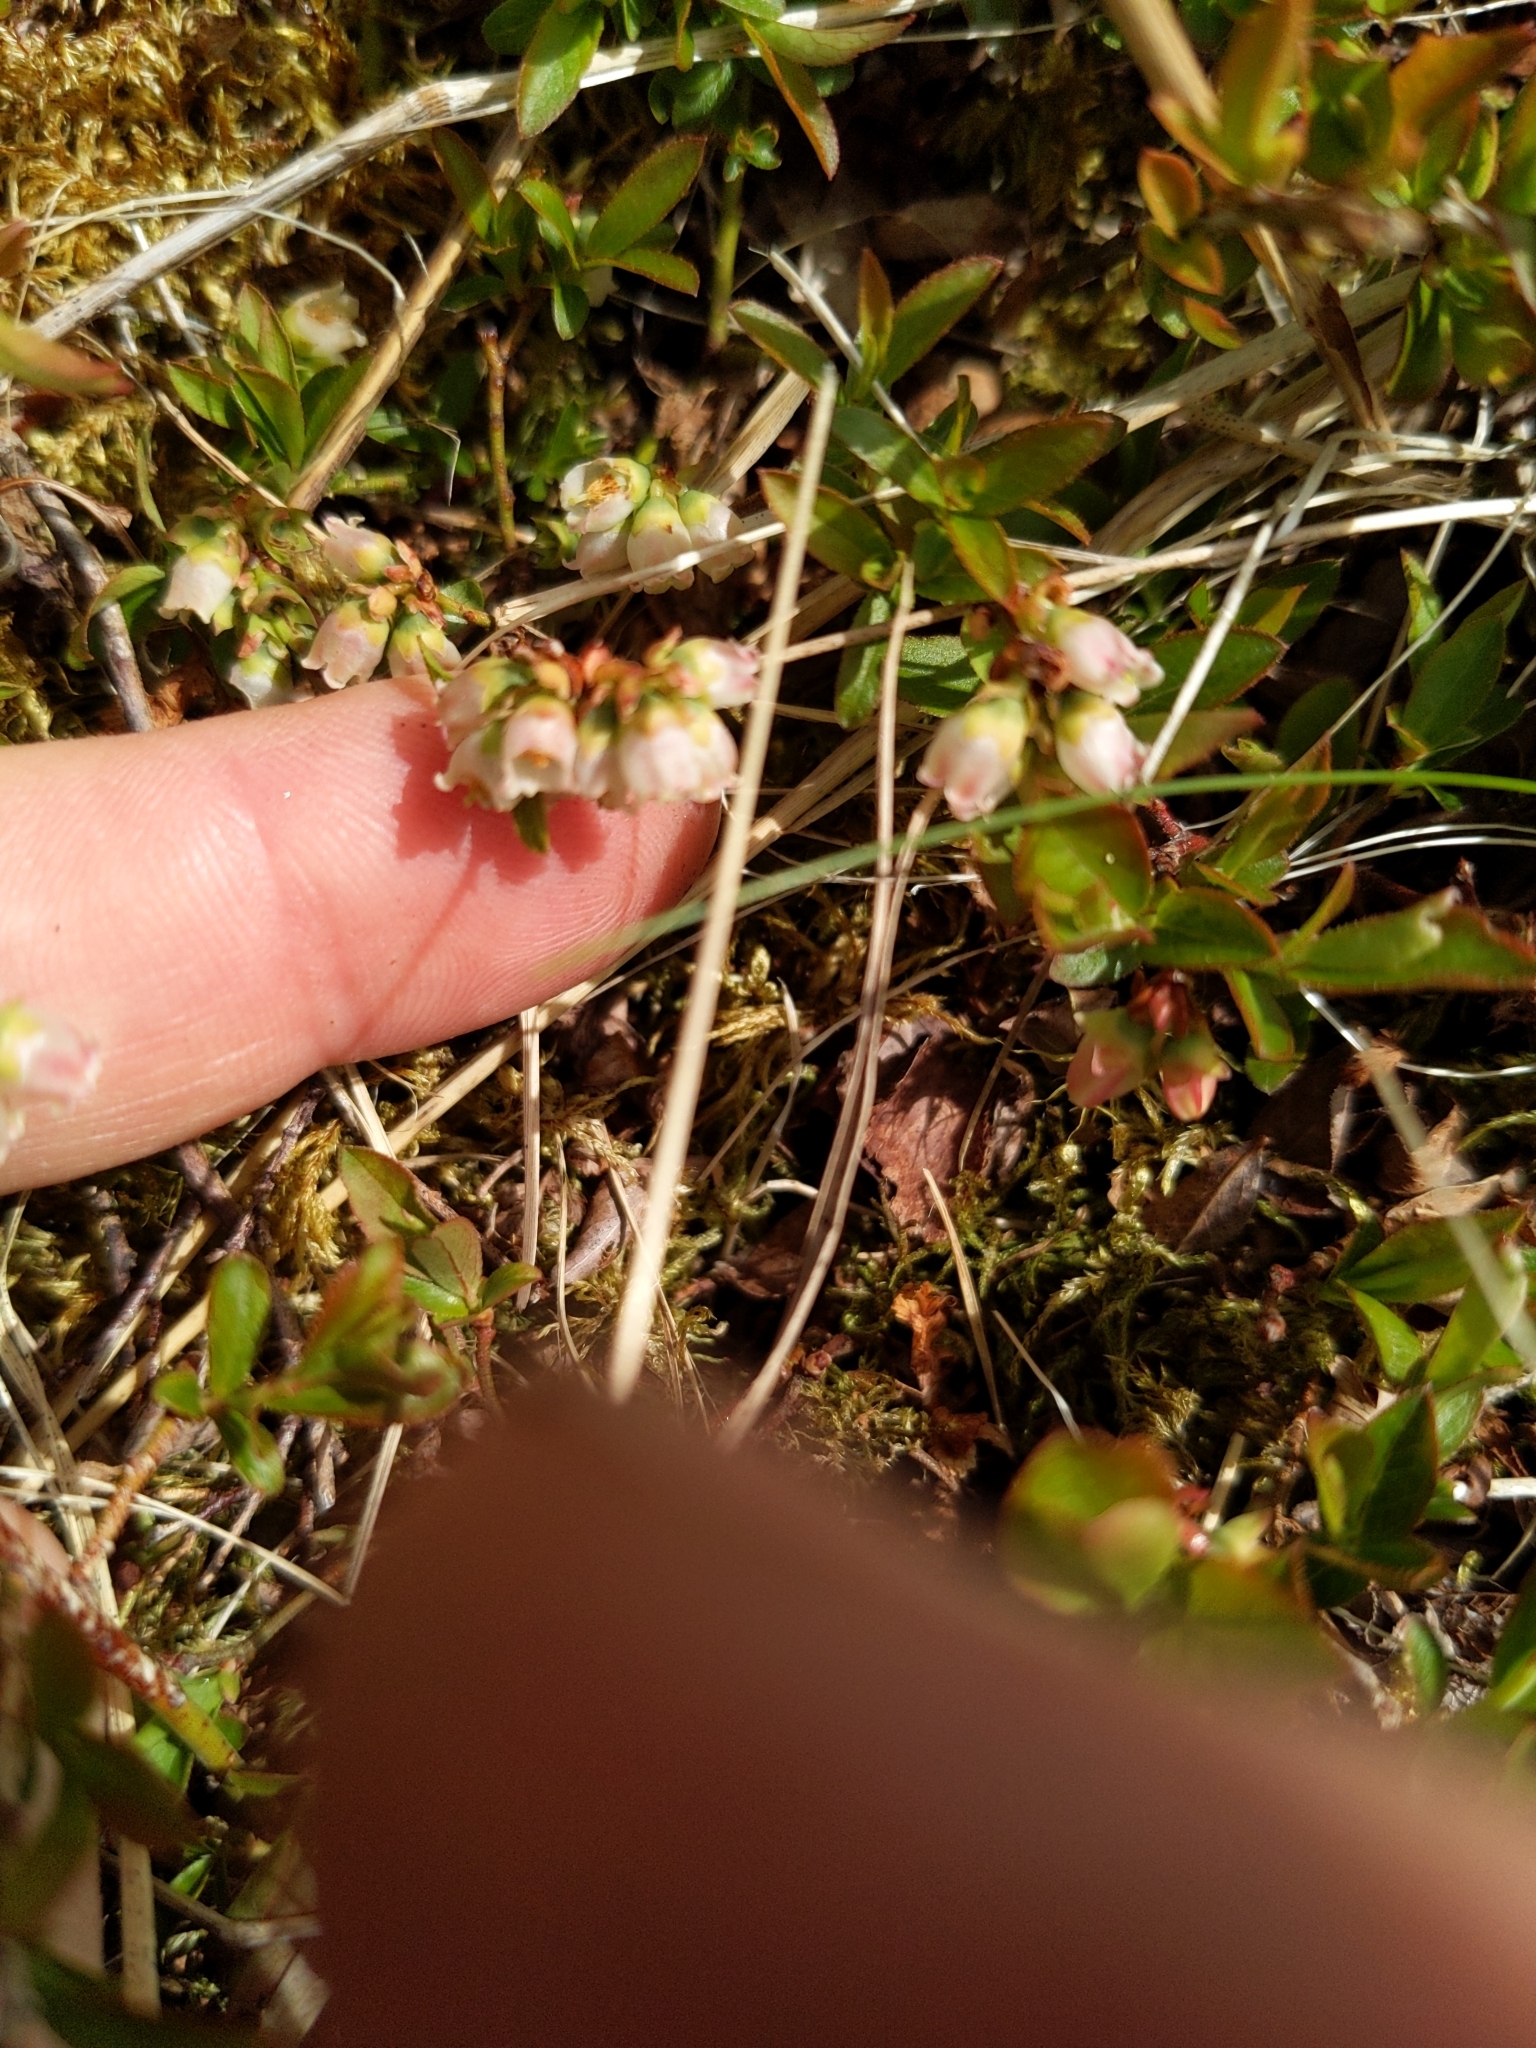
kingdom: Plantae
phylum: Tracheophyta
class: Magnoliopsida
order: Ericales
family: Ericaceae
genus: Vaccinium
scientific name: Vaccinium boreale
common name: Northern blueberry
